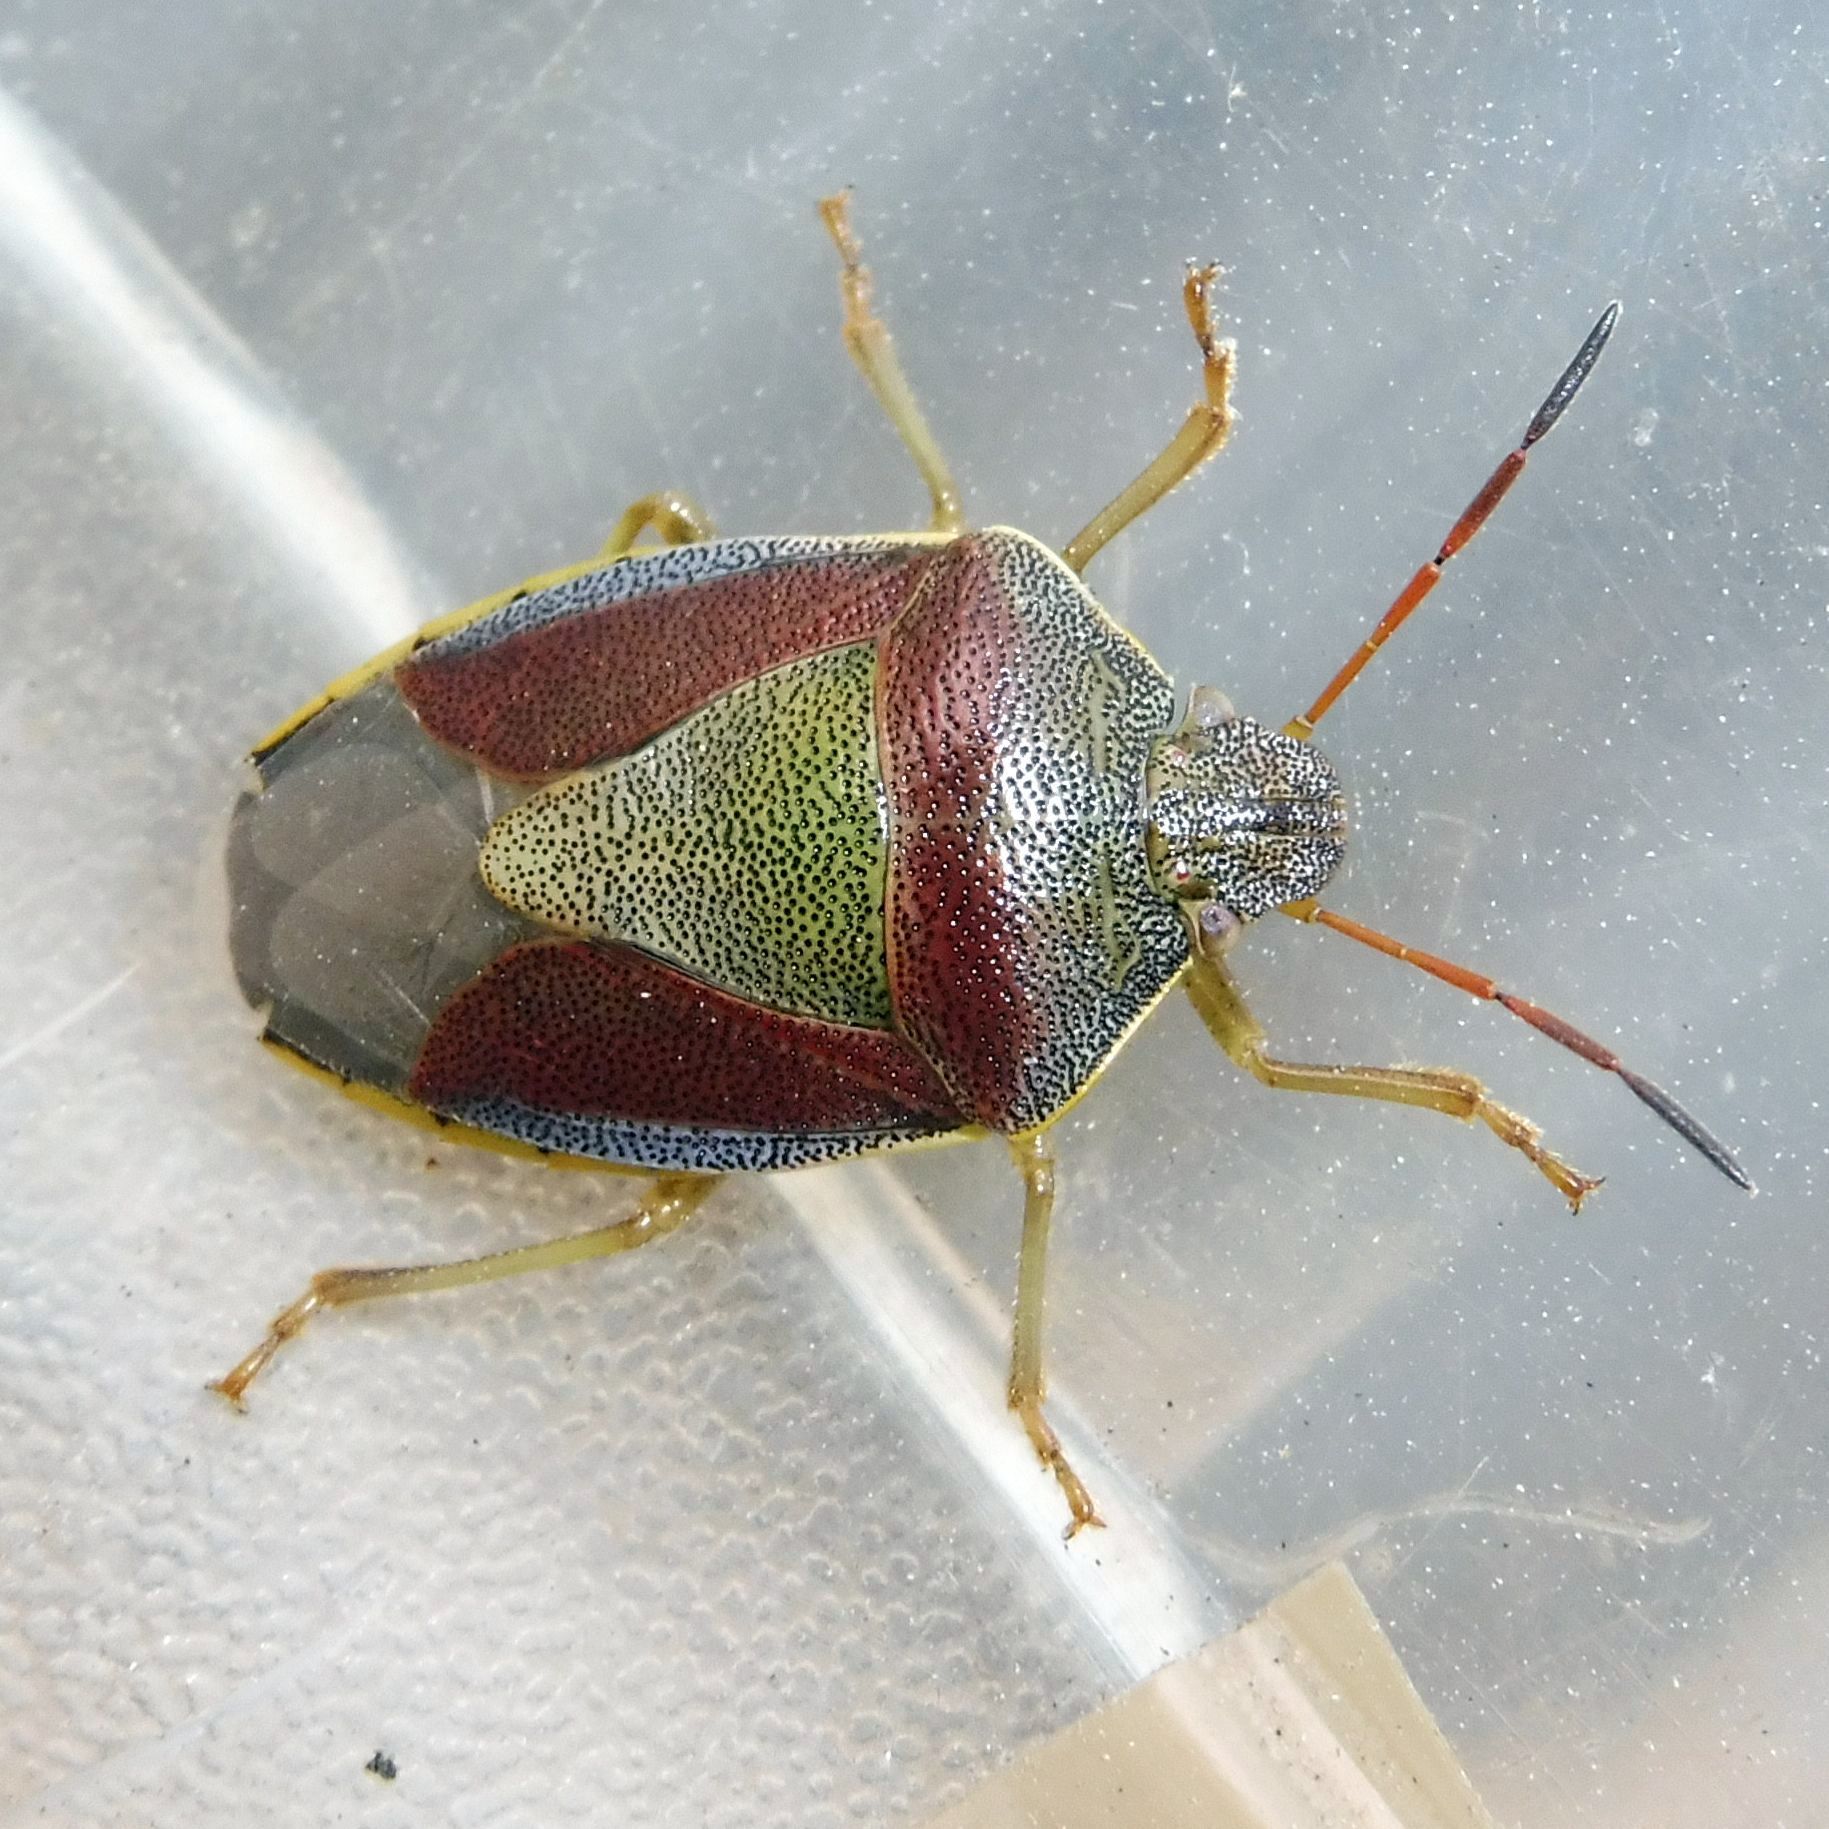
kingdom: Animalia
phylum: Arthropoda
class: Insecta
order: Hemiptera
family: Pentatomidae
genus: Piezodorus
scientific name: Piezodorus lituratus
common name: Stink bug
